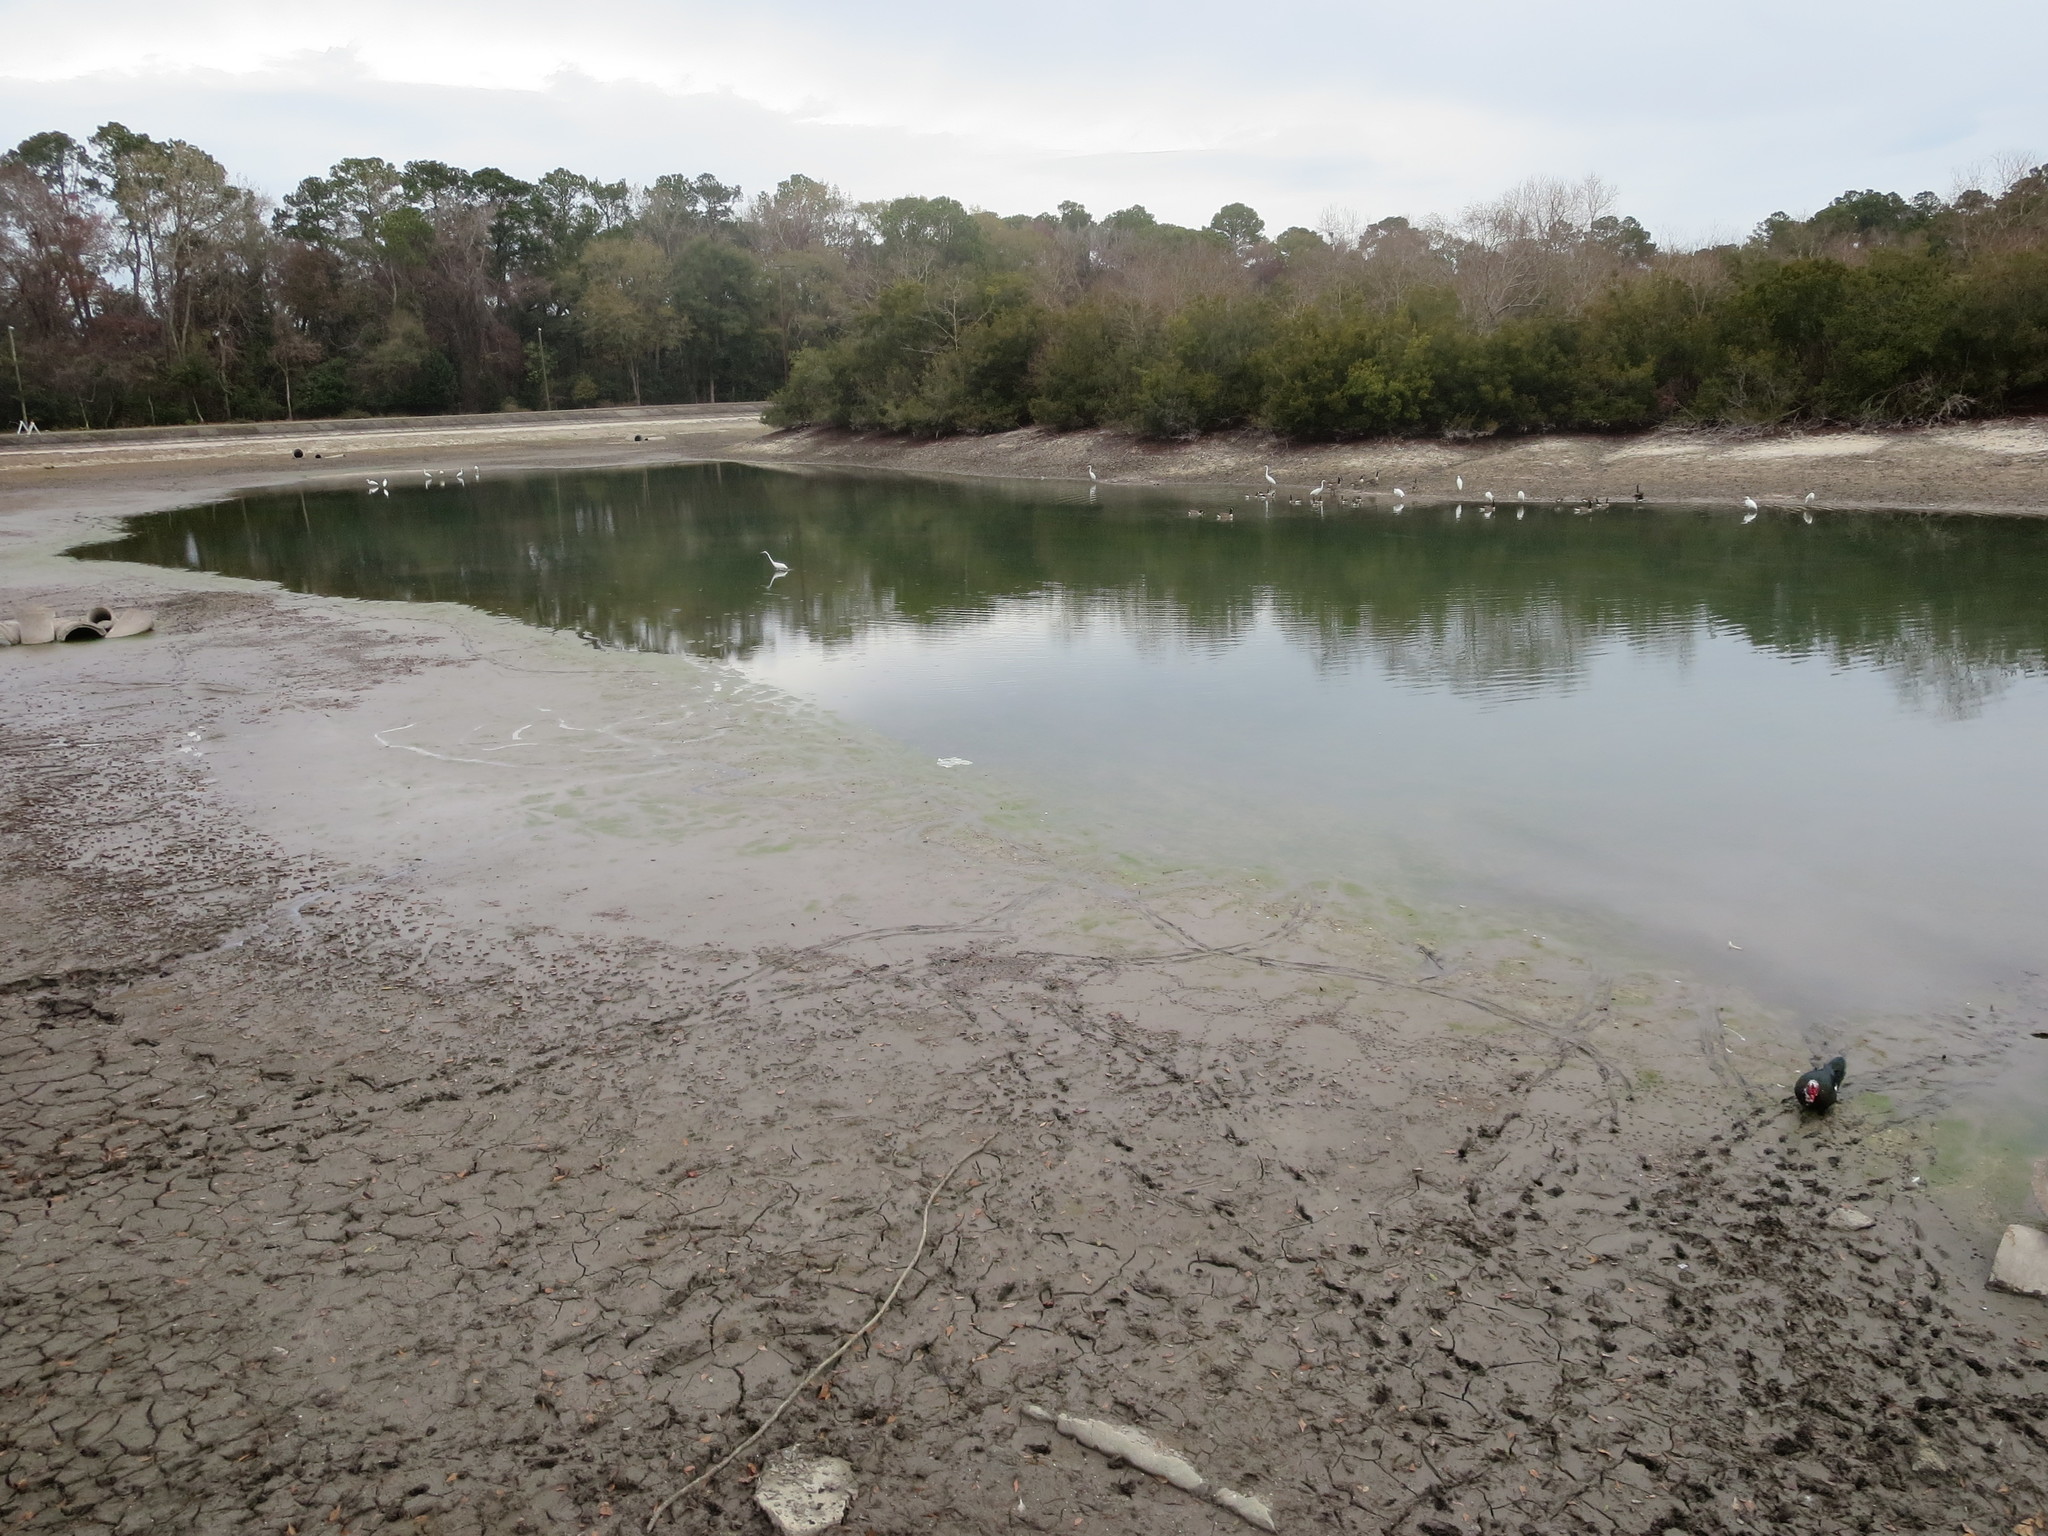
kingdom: Animalia
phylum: Chordata
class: Aves
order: Anseriformes
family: Anatidae
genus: Cairina
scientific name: Cairina moschata
